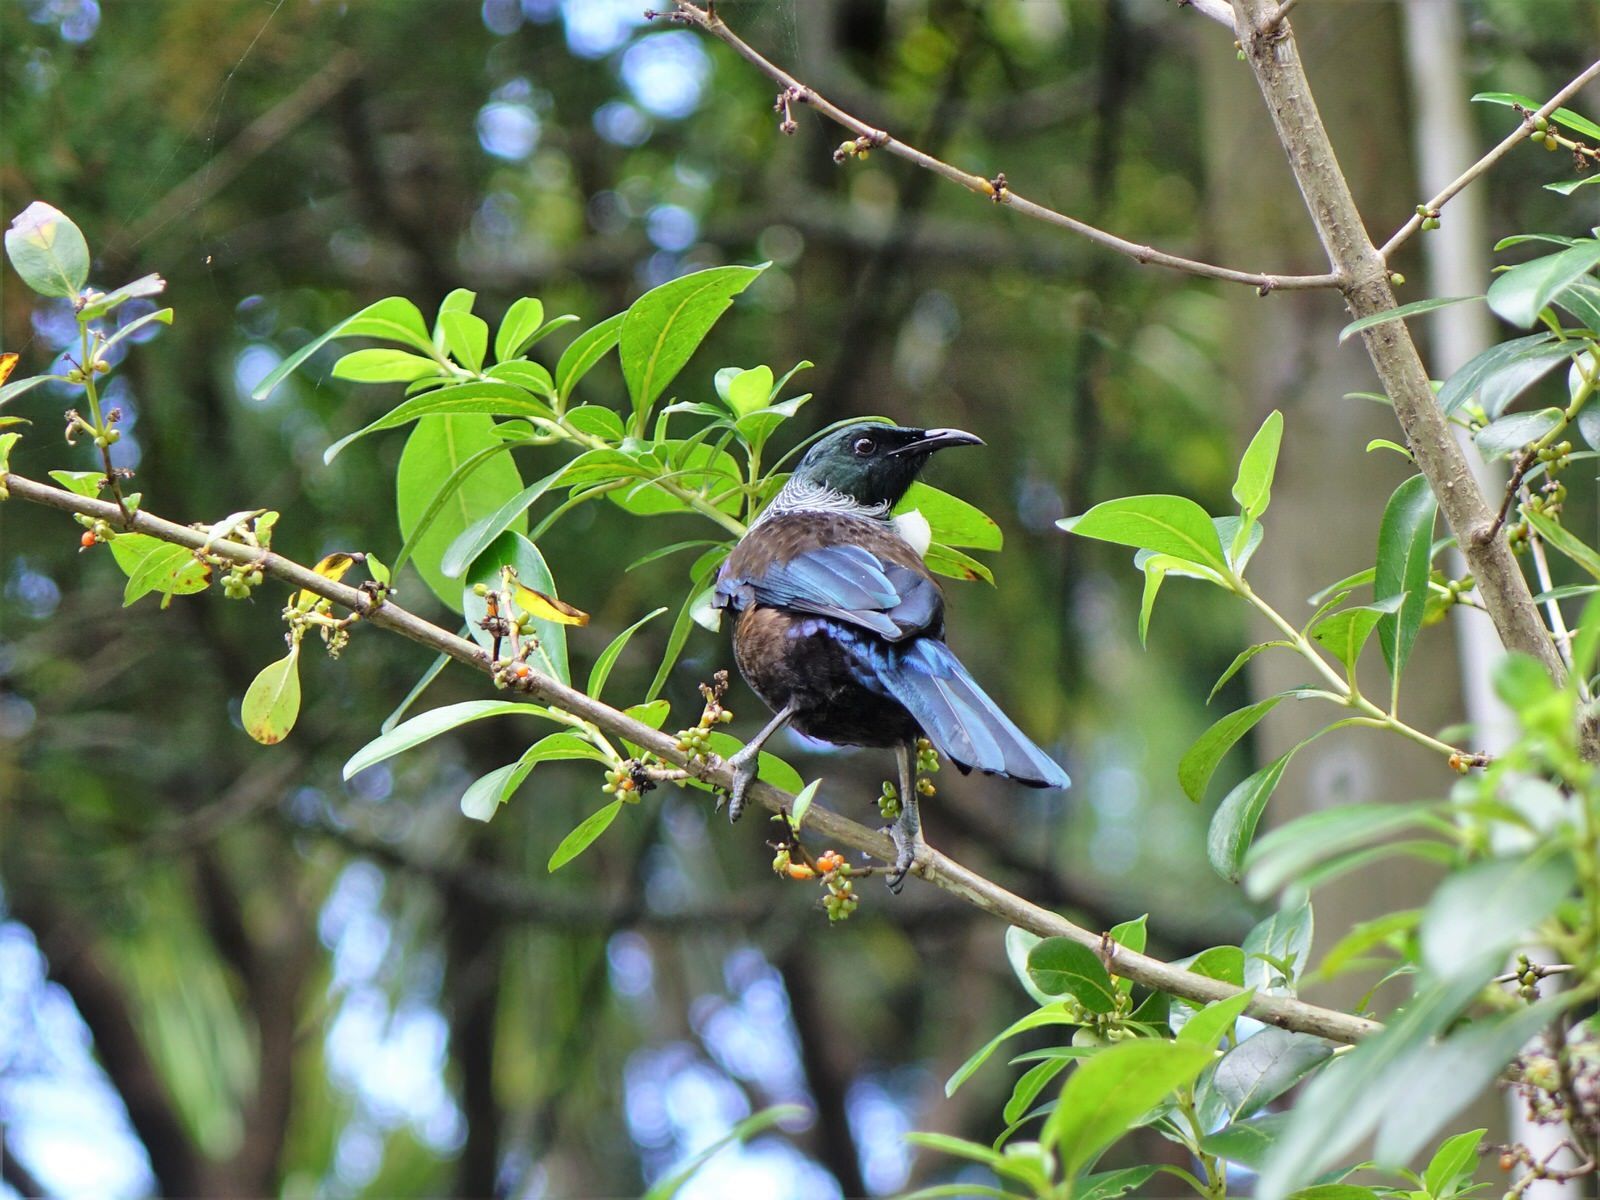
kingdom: Animalia
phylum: Chordata
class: Aves
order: Passeriformes
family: Meliphagidae
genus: Prosthemadera
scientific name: Prosthemadera novaeseelandiae
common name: Tui
